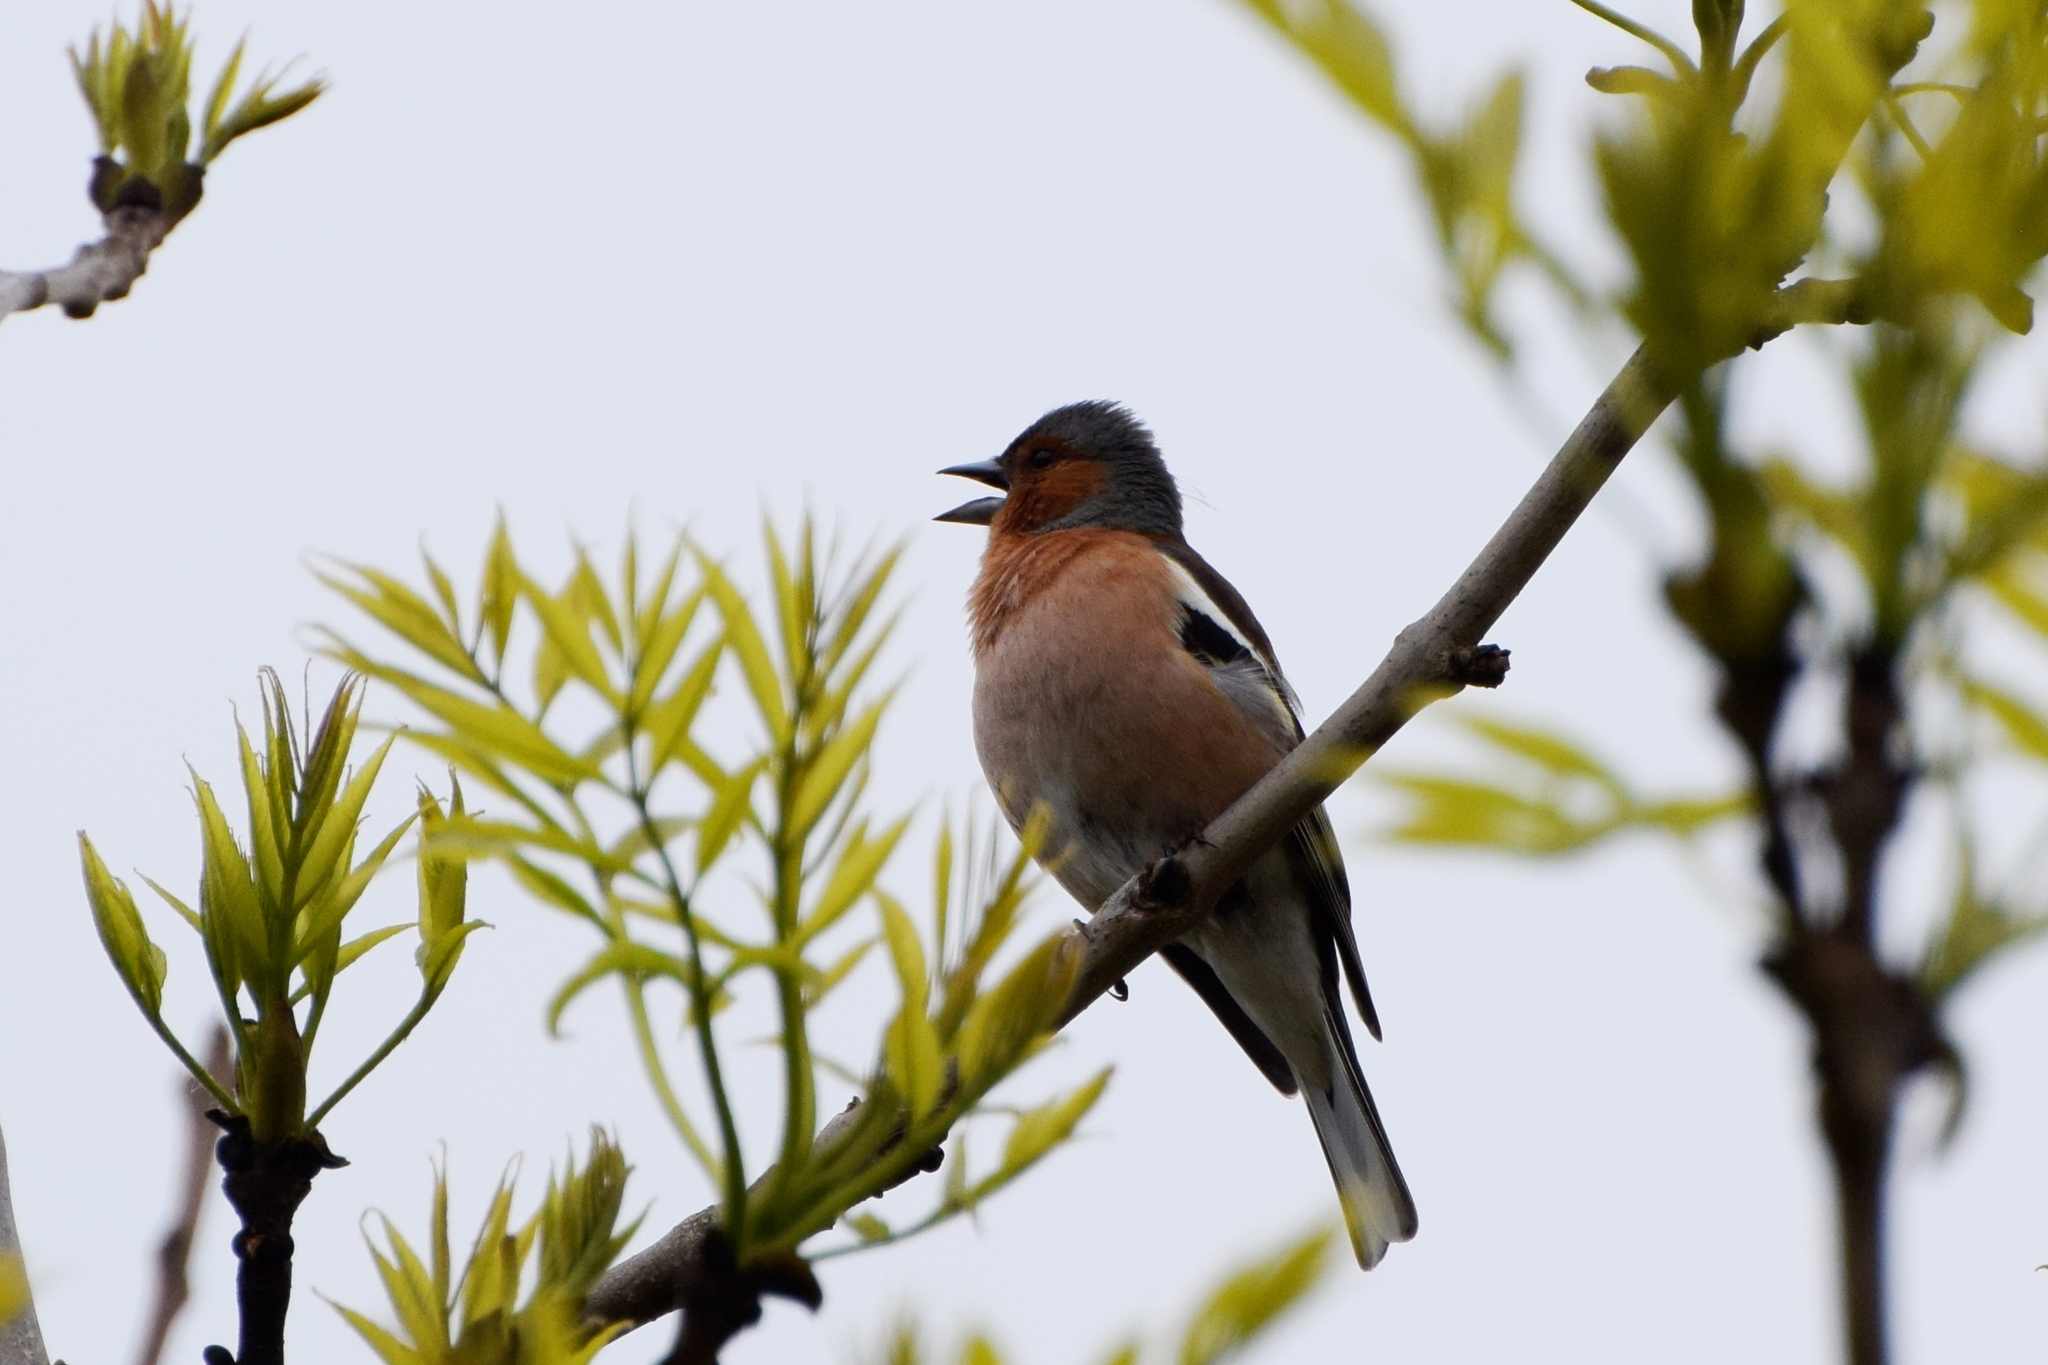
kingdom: Animalia
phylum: Chordata
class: Aves
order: Passeriformes
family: Fringillidae
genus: Fringilla
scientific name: Fringilla coelebs
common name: Common chaffinch
